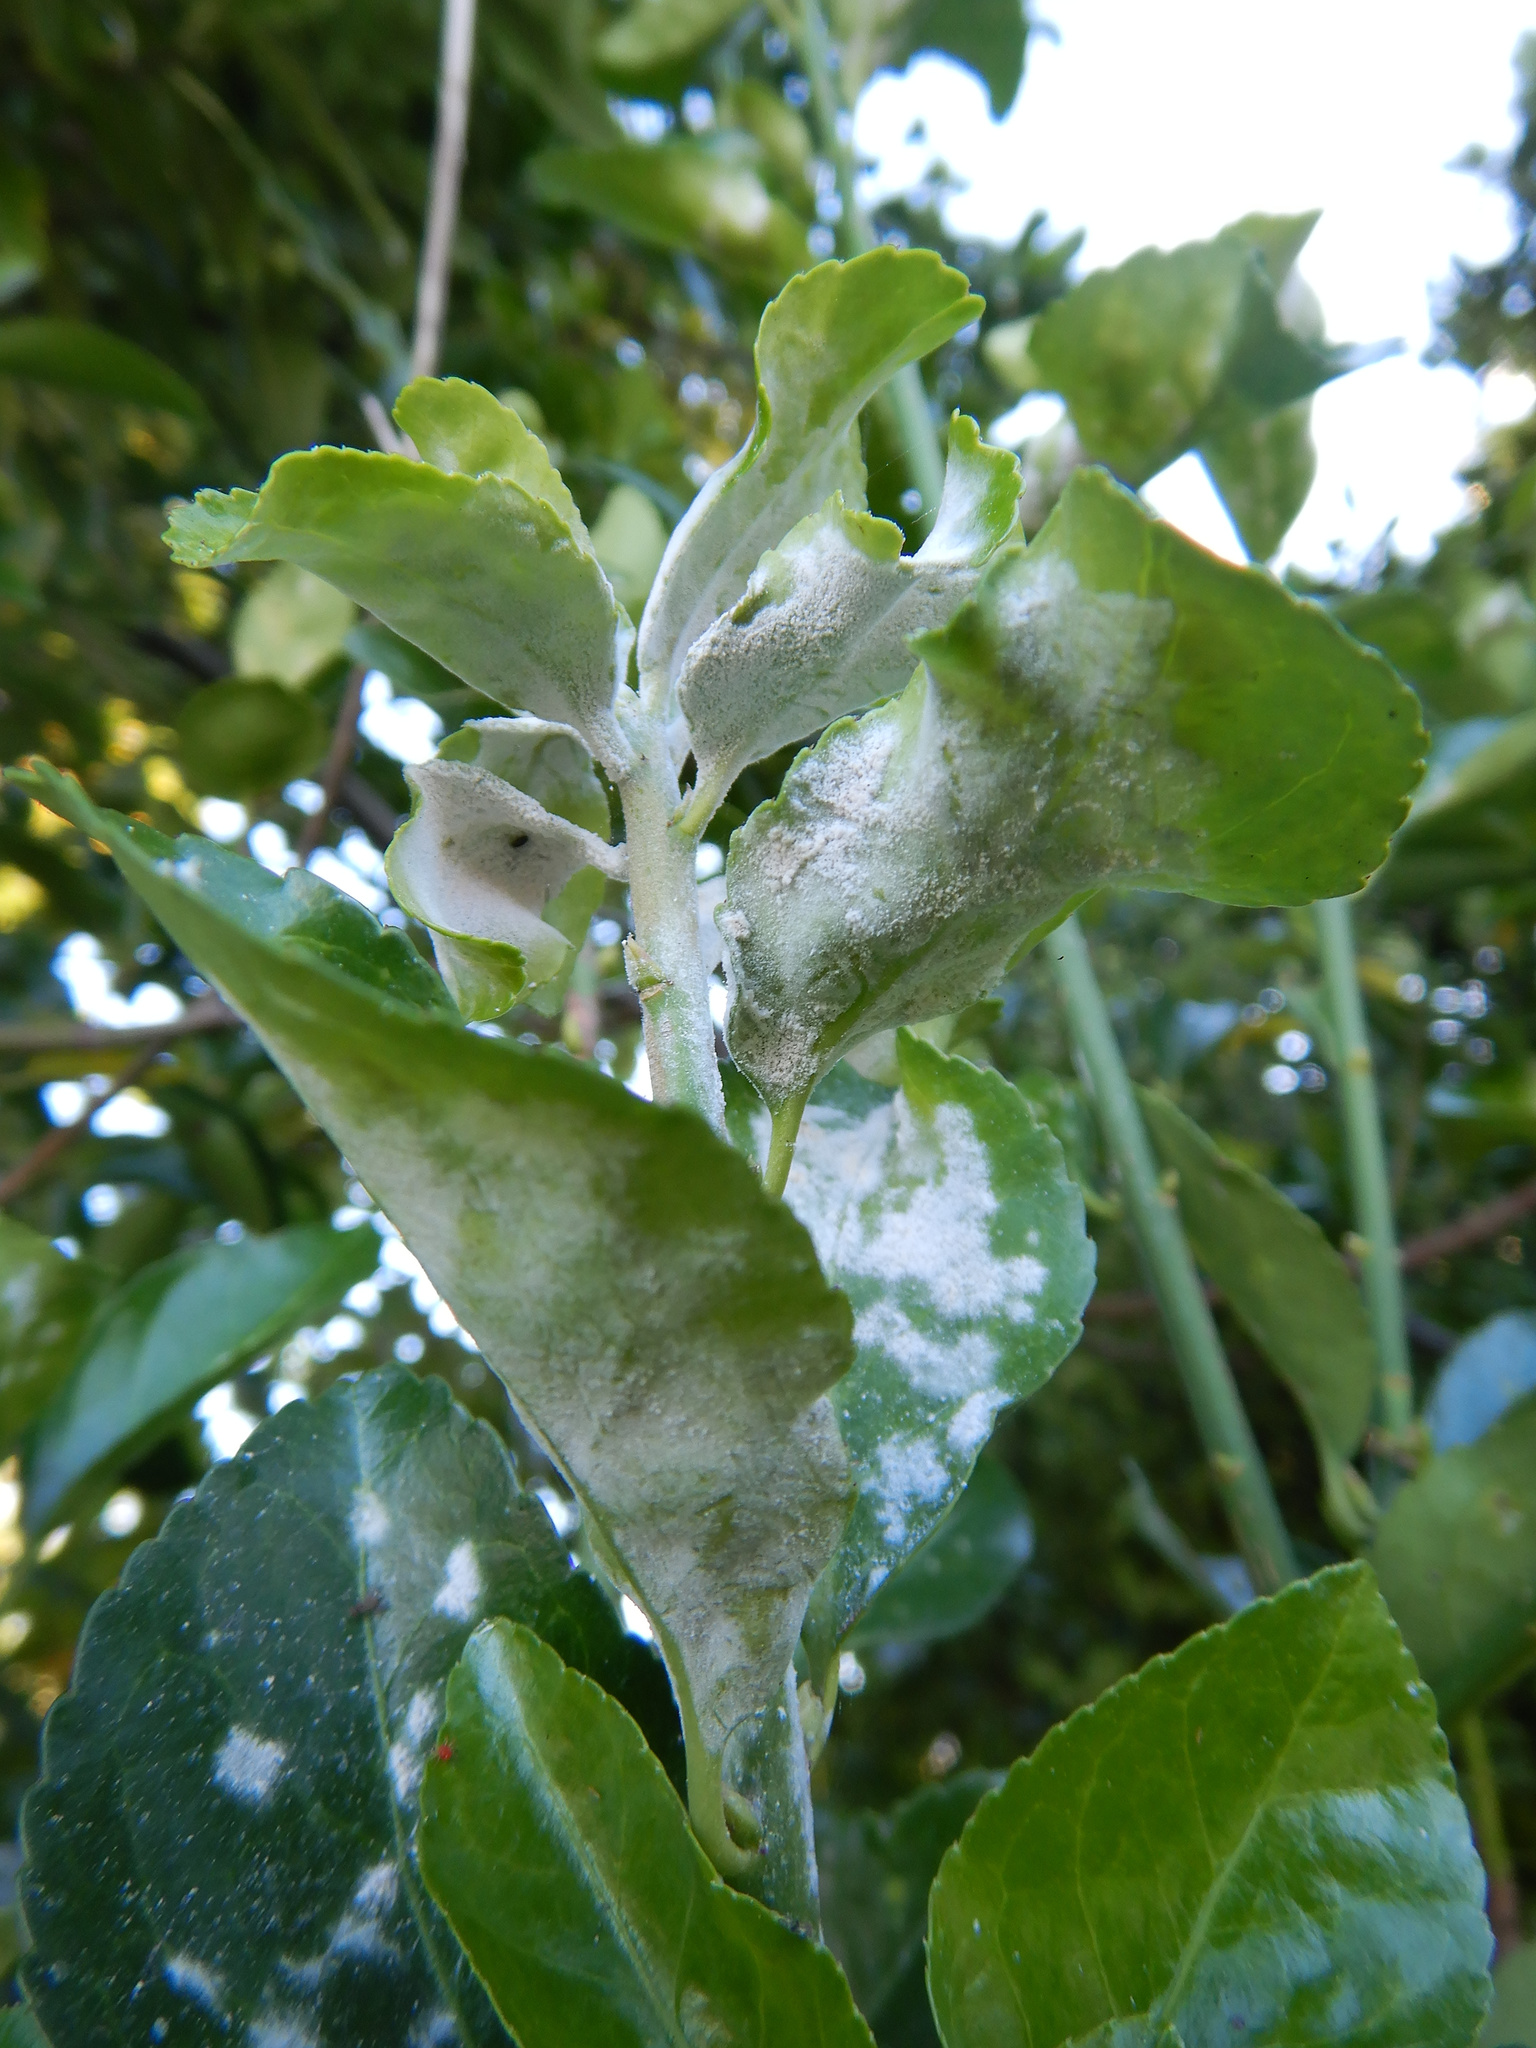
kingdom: Fungi
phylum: Ascomycota
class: Leotiomycetes
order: Helotiales
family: Erysiphaceae
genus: Erysiphe
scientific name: Erysiphe euonymicola
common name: Spindletree mildew
